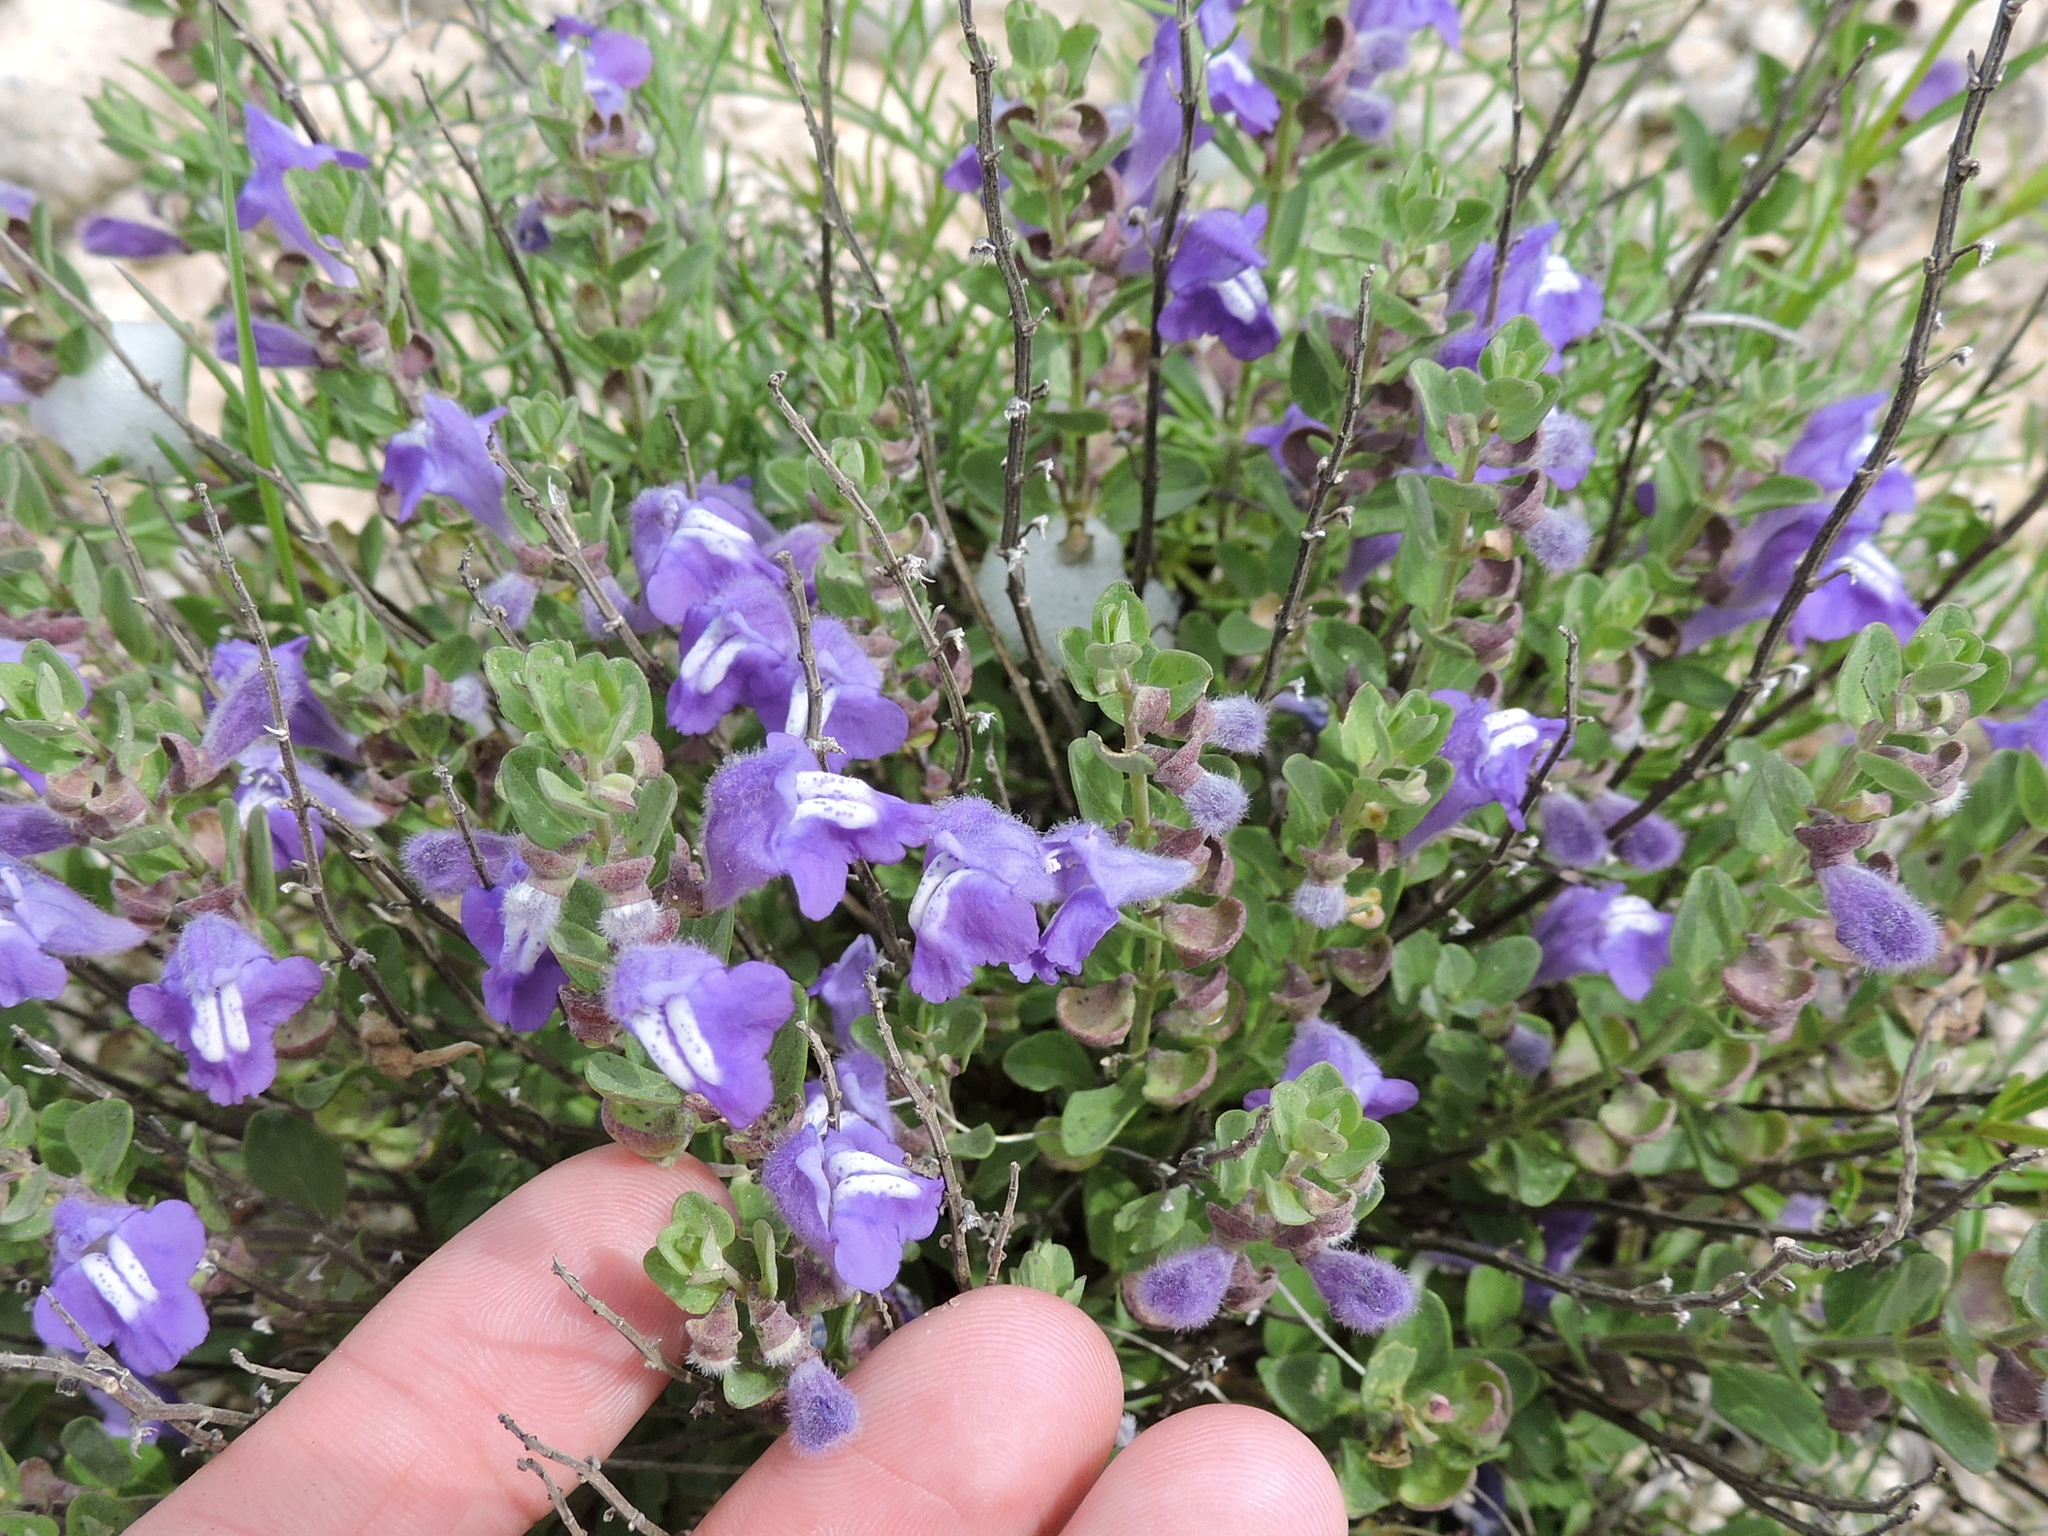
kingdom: Plantae
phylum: Tracheophyta
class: Magnoliopsida
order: Lamiales
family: Lamiaceae
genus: Scutellaria
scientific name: Scutellaria drummondii
